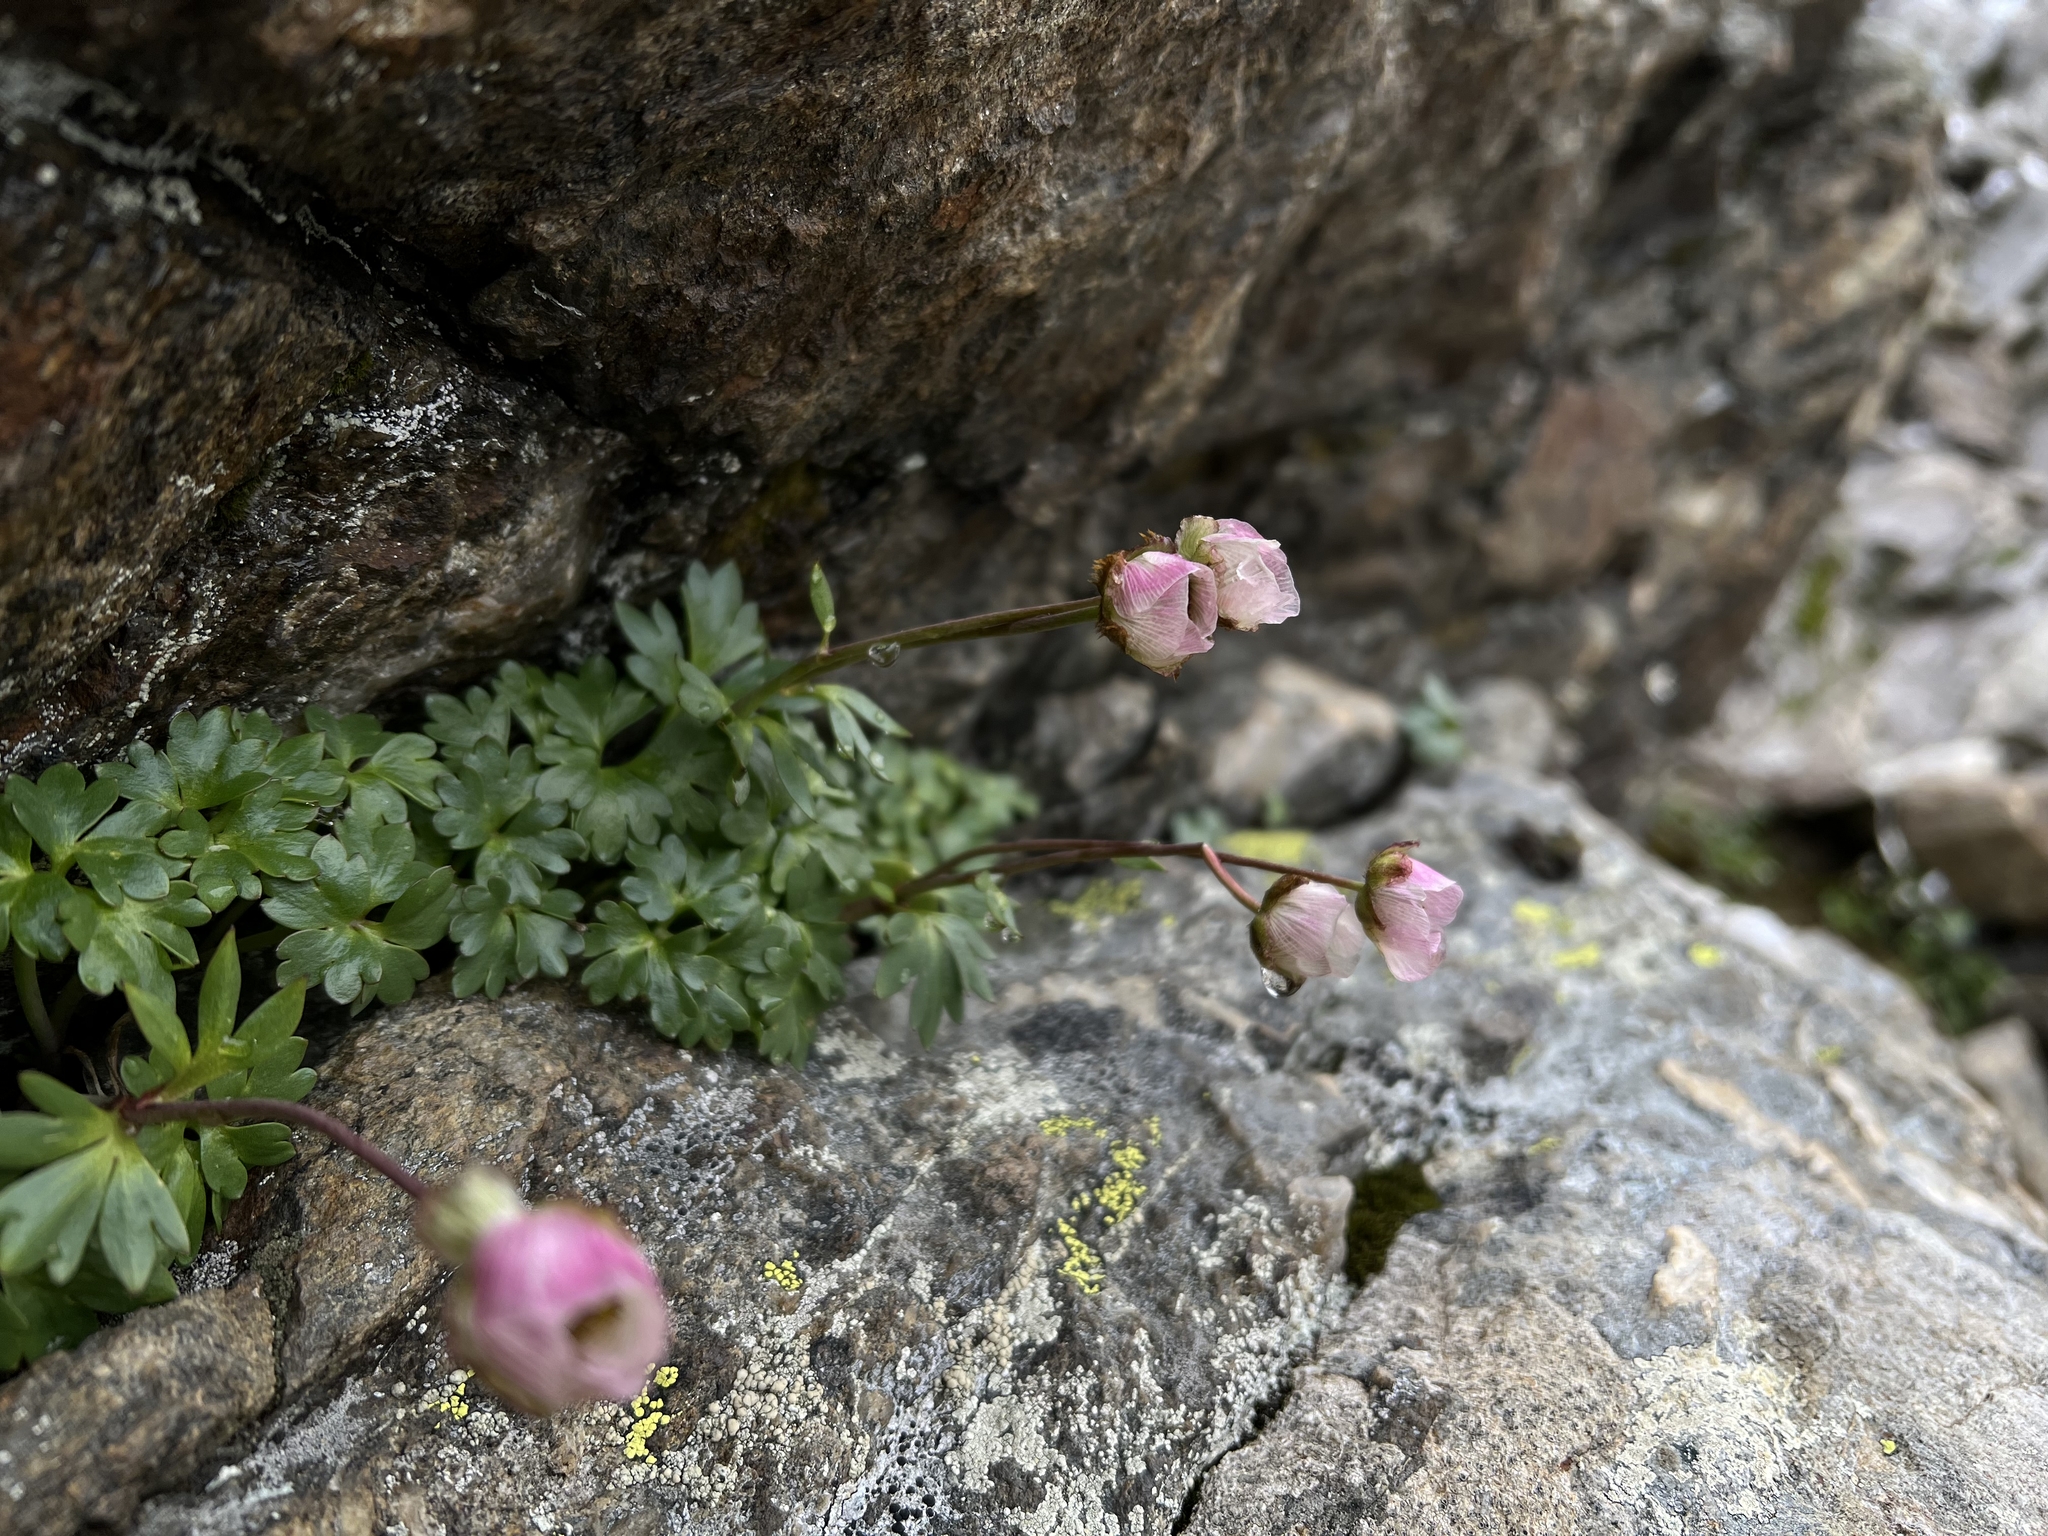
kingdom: Plantae
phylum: Tracheophyta
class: Magnoliopsida
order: Ranunculales
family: Ranunculaceae
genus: Ranunculus
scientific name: Ranunculus glacialis
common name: Glacier buttercup
